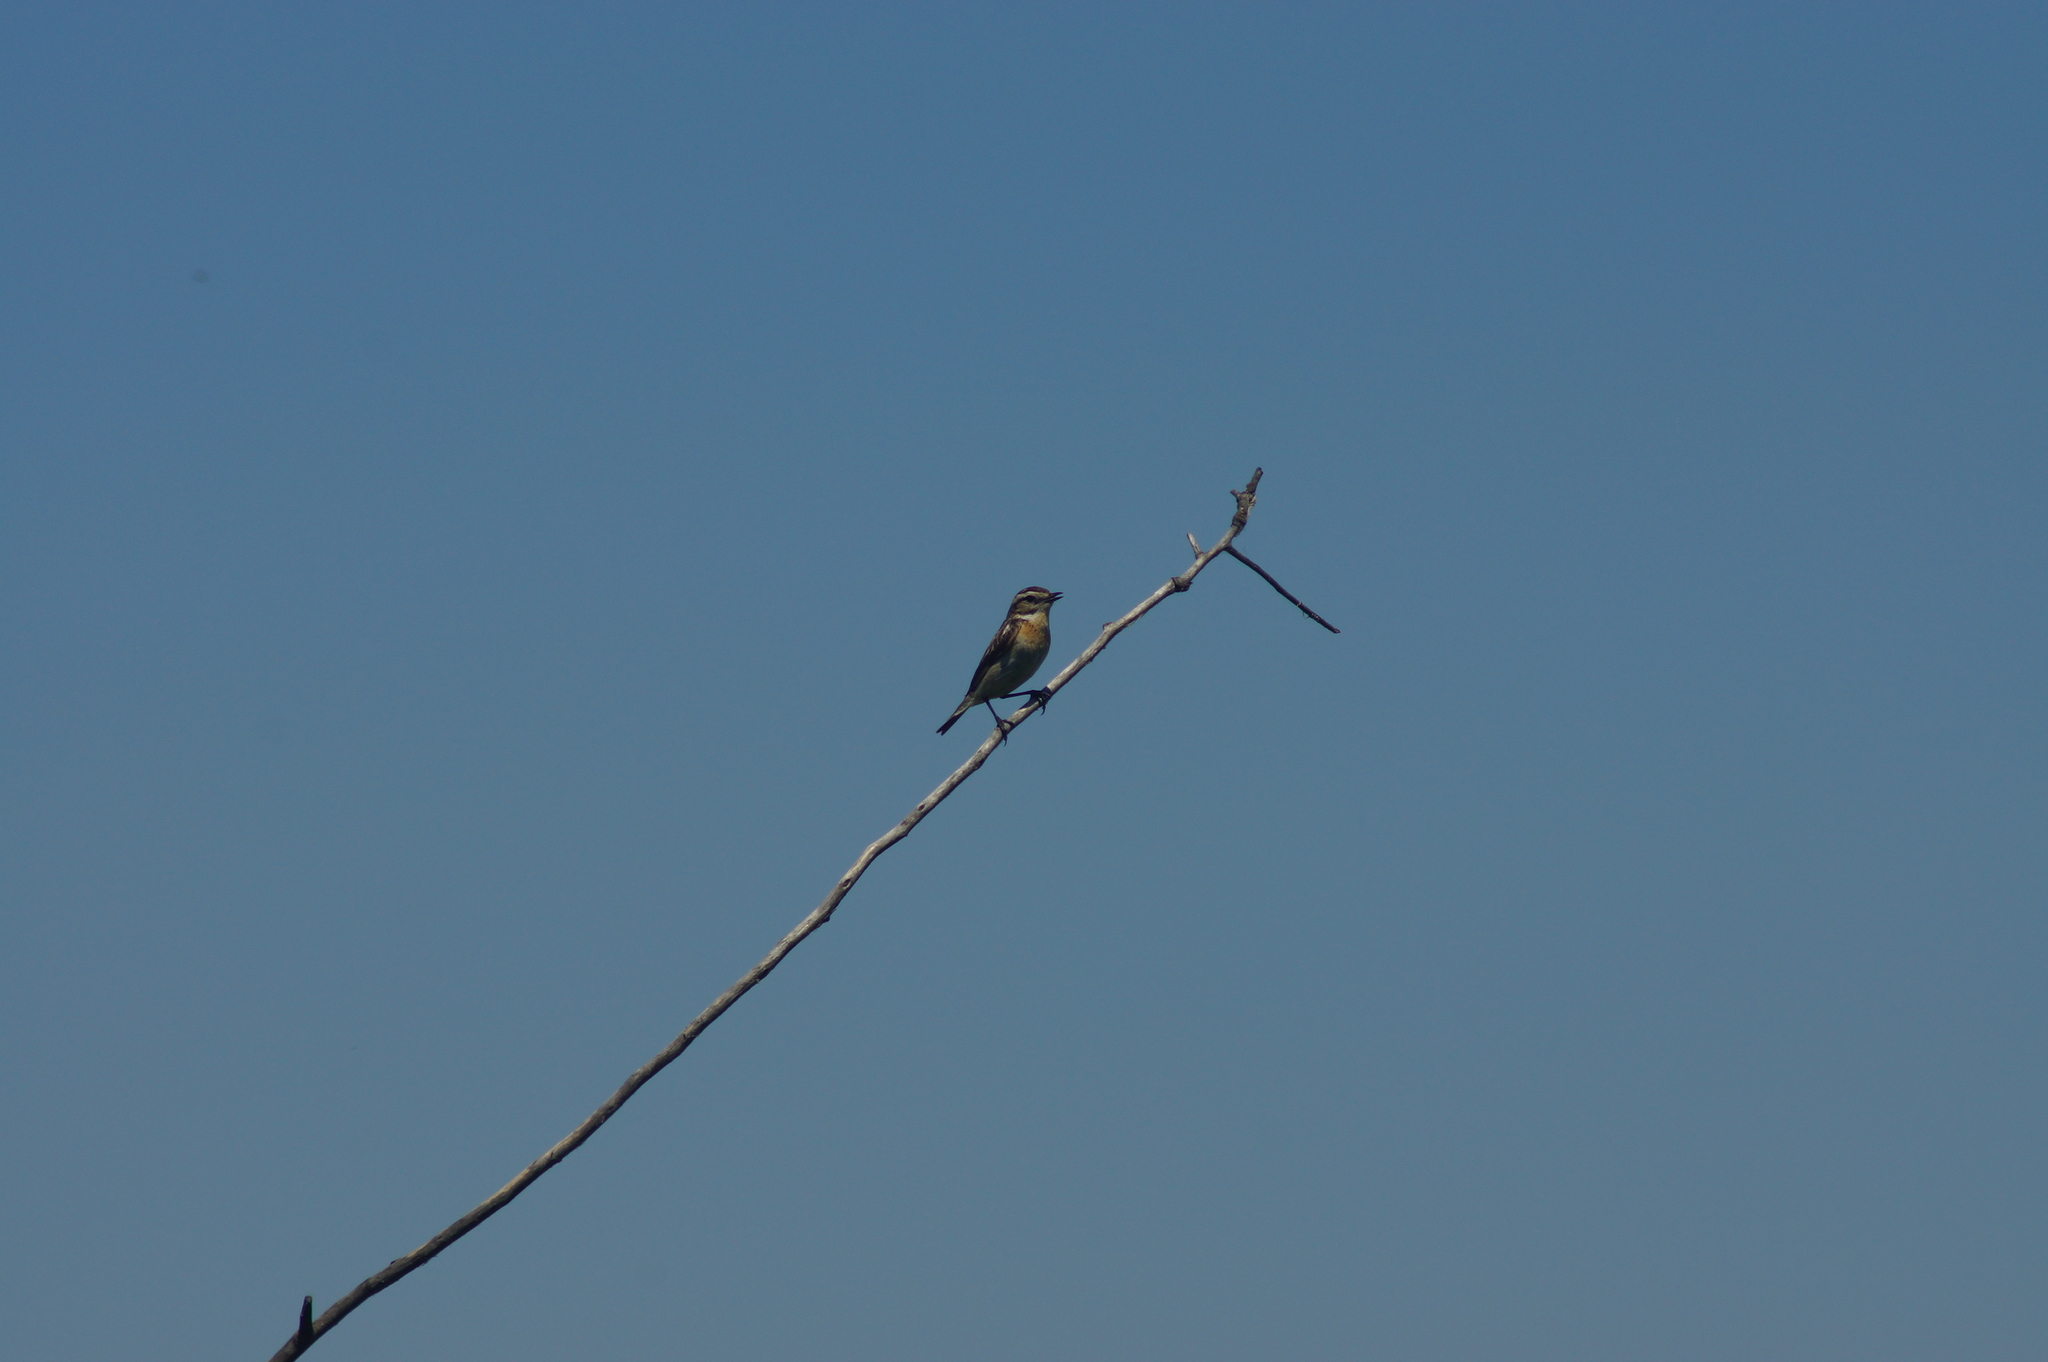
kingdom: Animalia
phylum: Chordata
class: Aves
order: Passeriformes
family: Muscicapidae
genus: Saxicola
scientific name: Saxicola rubetra
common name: Whinchat
